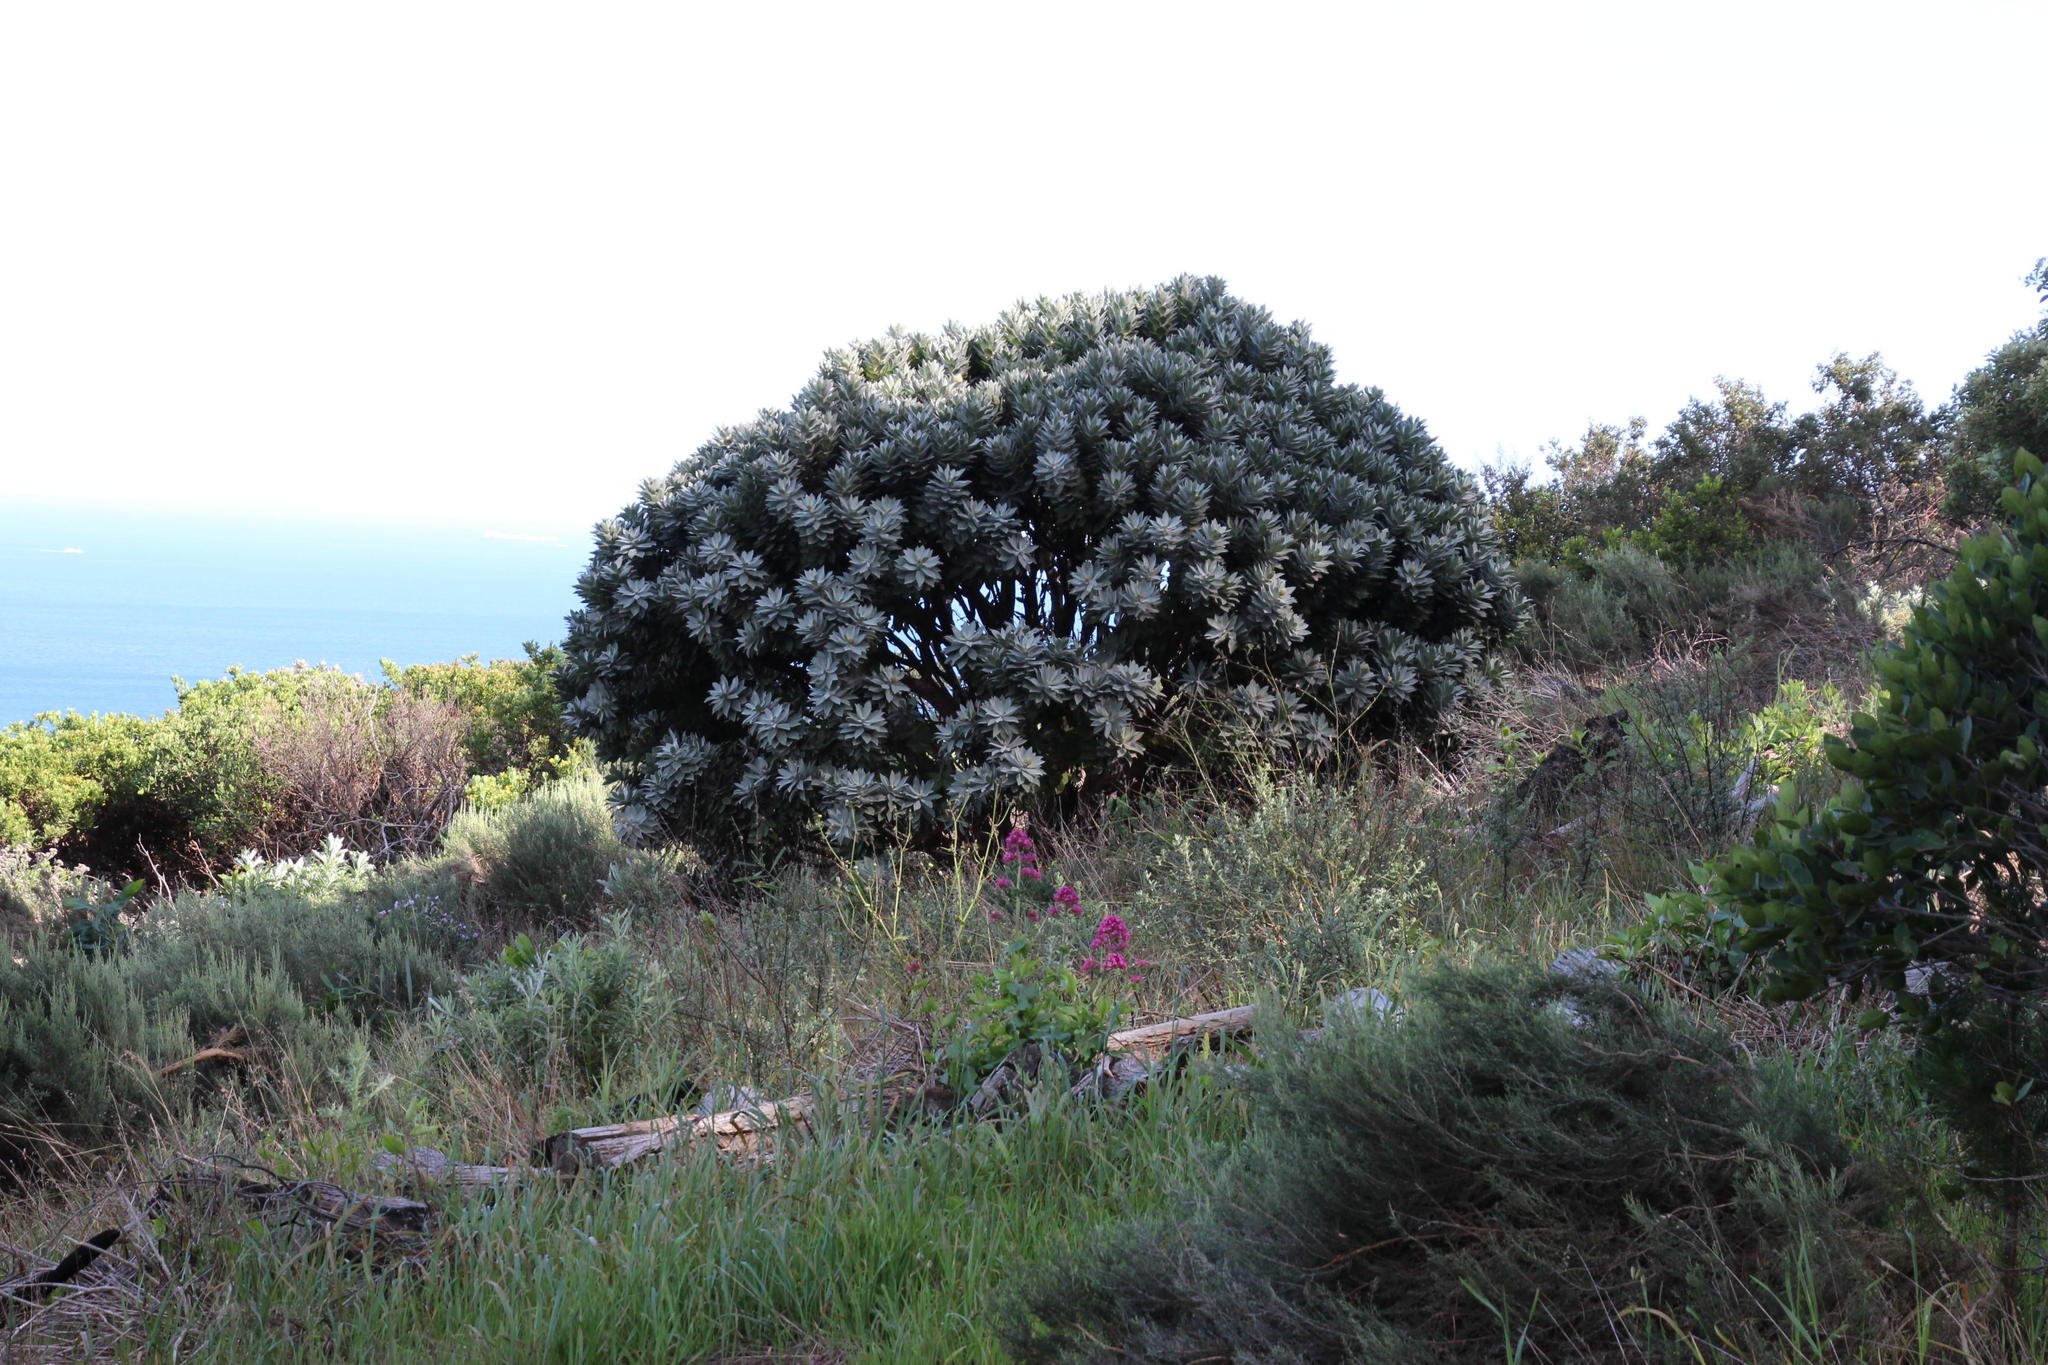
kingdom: Plantae
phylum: Tracheophyta
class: Magnoliopsida
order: Proteales
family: Proteaceae
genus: Leucospermum
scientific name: Leucospermum conocarpodendron
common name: Tree pincushion
